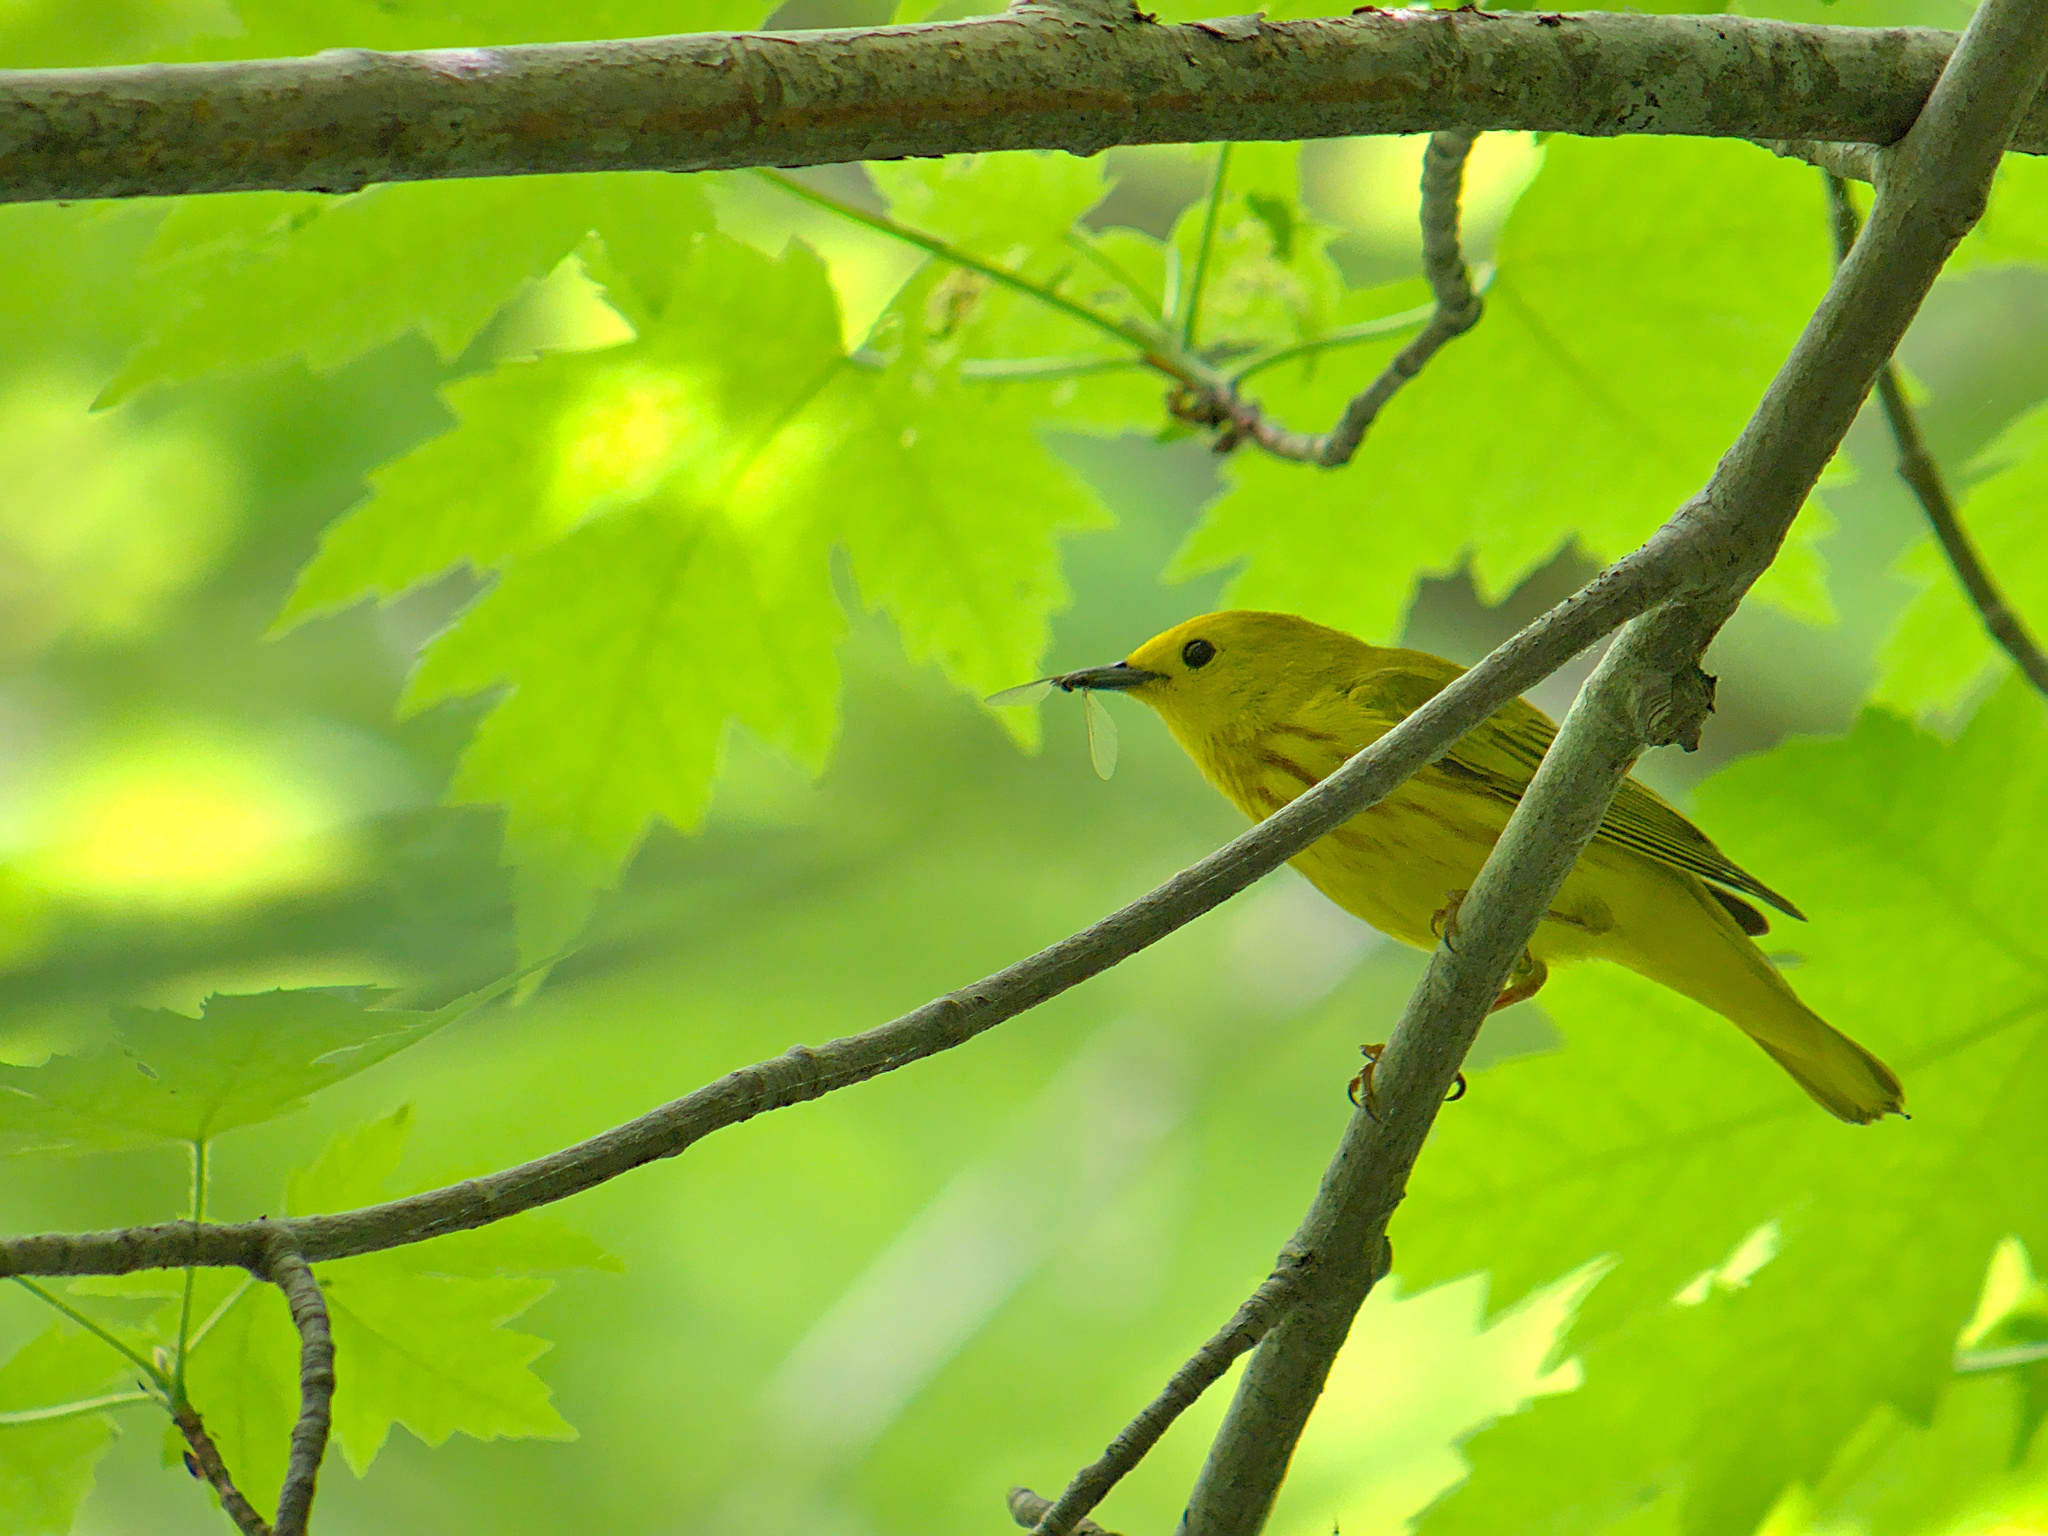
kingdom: Animalia
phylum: Chordata
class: Aves
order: Passeriformes
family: Parulidae
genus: Setophaga
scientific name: Setophaga petechia
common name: Yellow warbler
